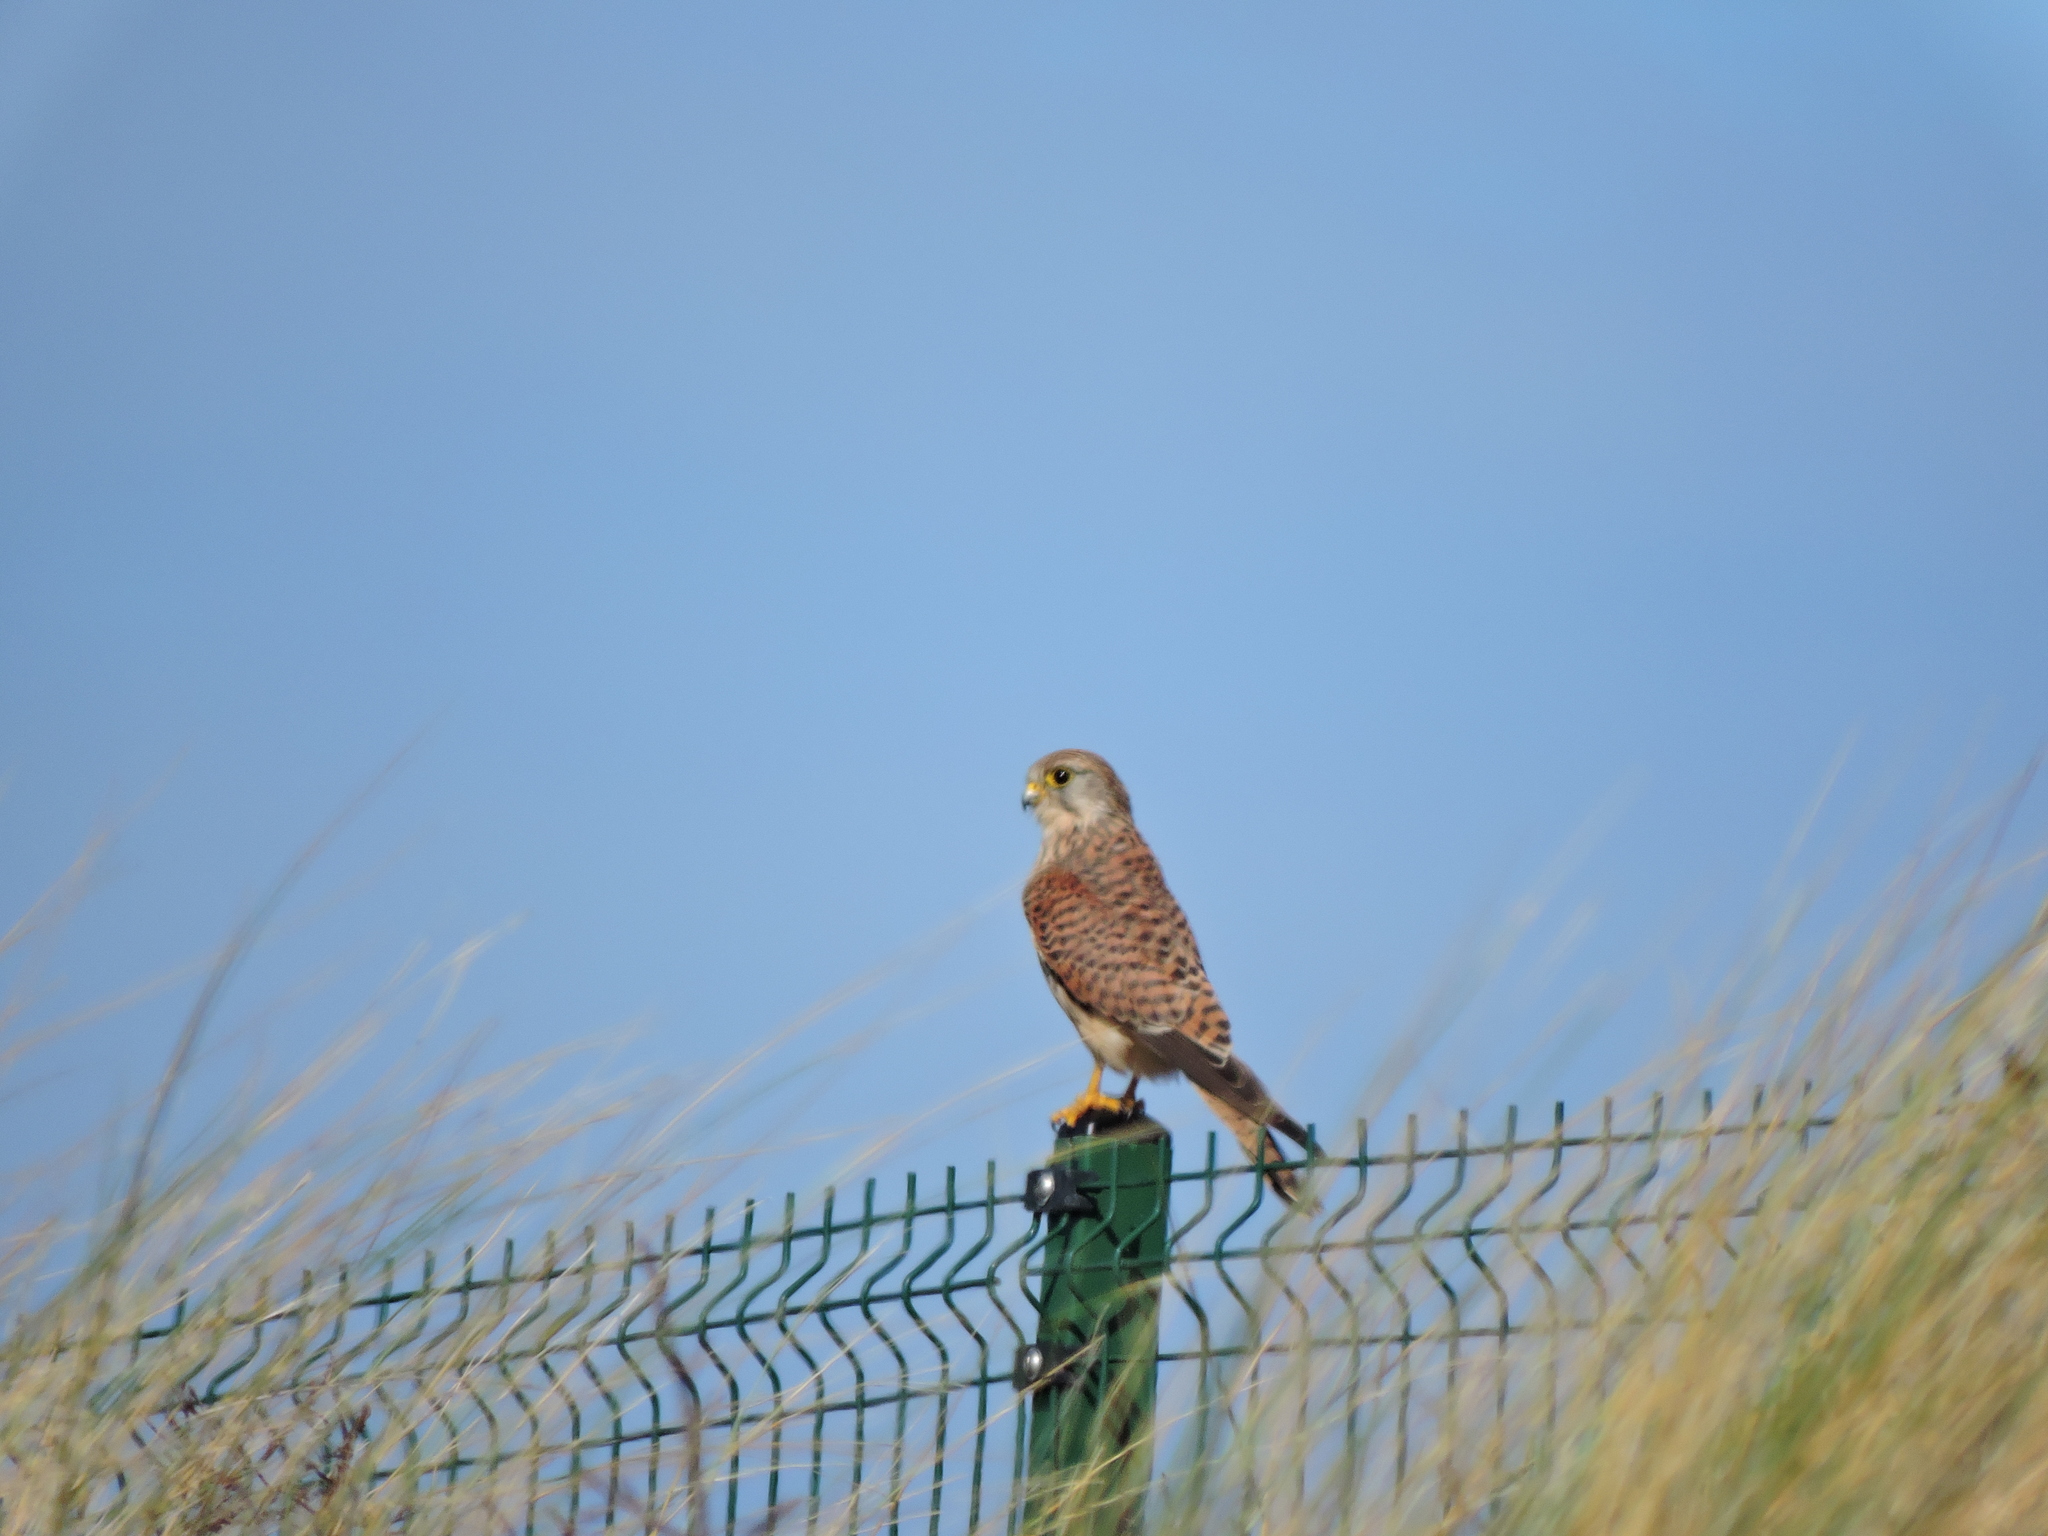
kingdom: Animalia
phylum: Chordata
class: Aves
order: Falconiformes
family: Falconidae
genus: Falco
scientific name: Falco tinnunculus
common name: Common kestrel
